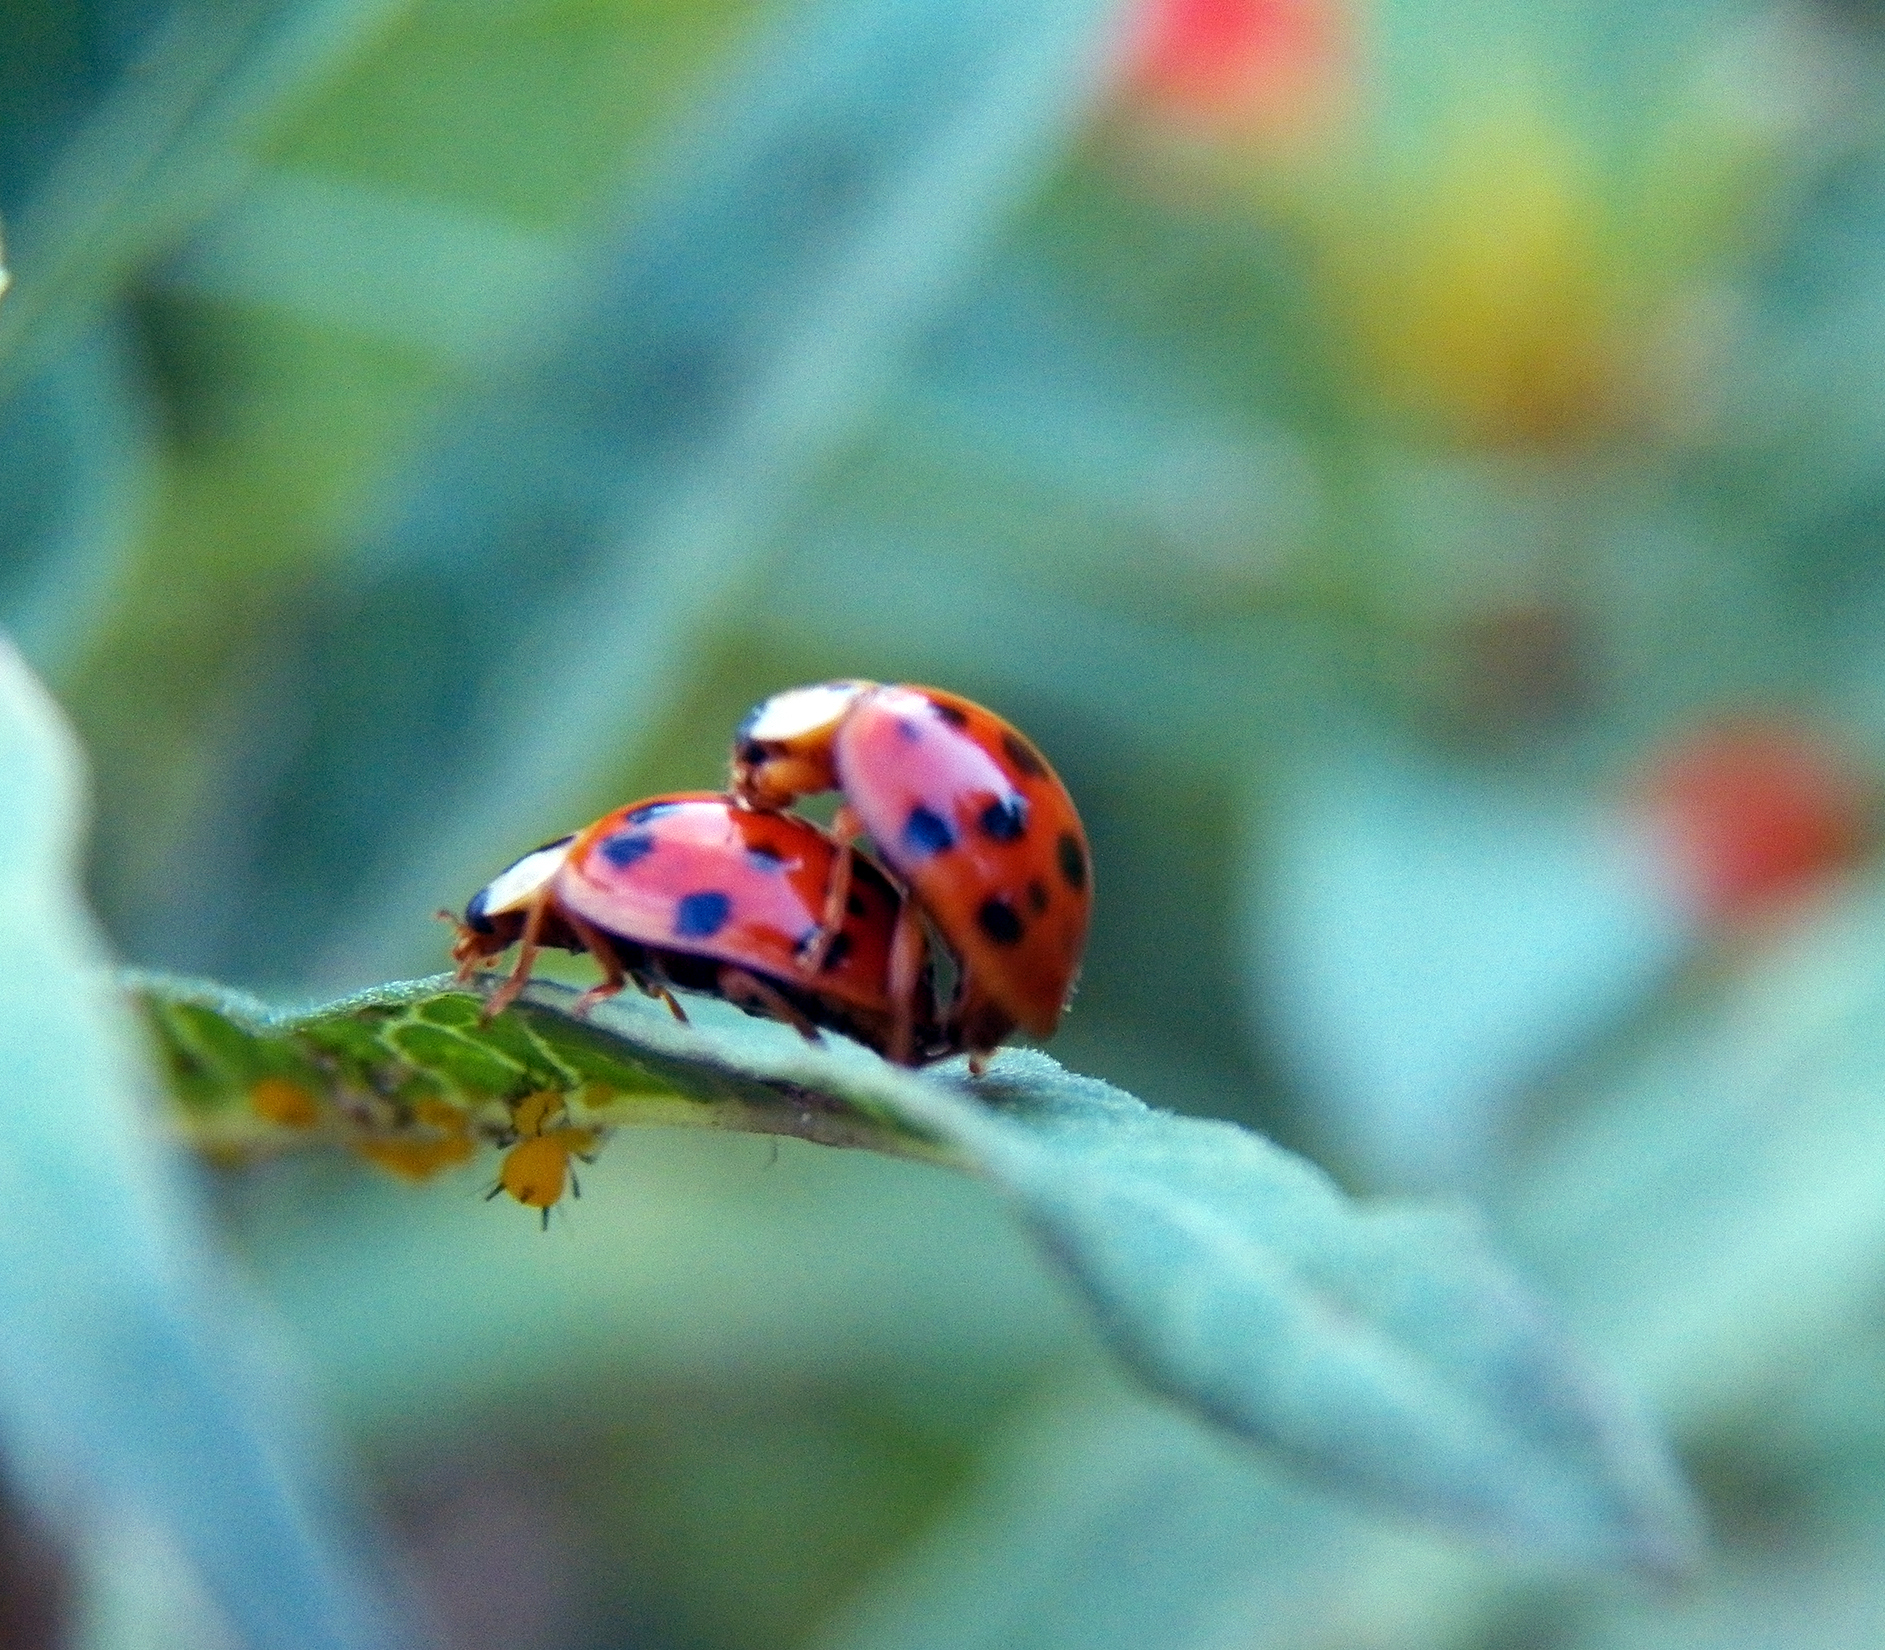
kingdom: Animalia
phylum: Arthropoda
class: Insecta
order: Coleoptera
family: Coccinellidae
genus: Harmonia
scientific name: Harmonia axyridis
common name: Harlequin ladybird
